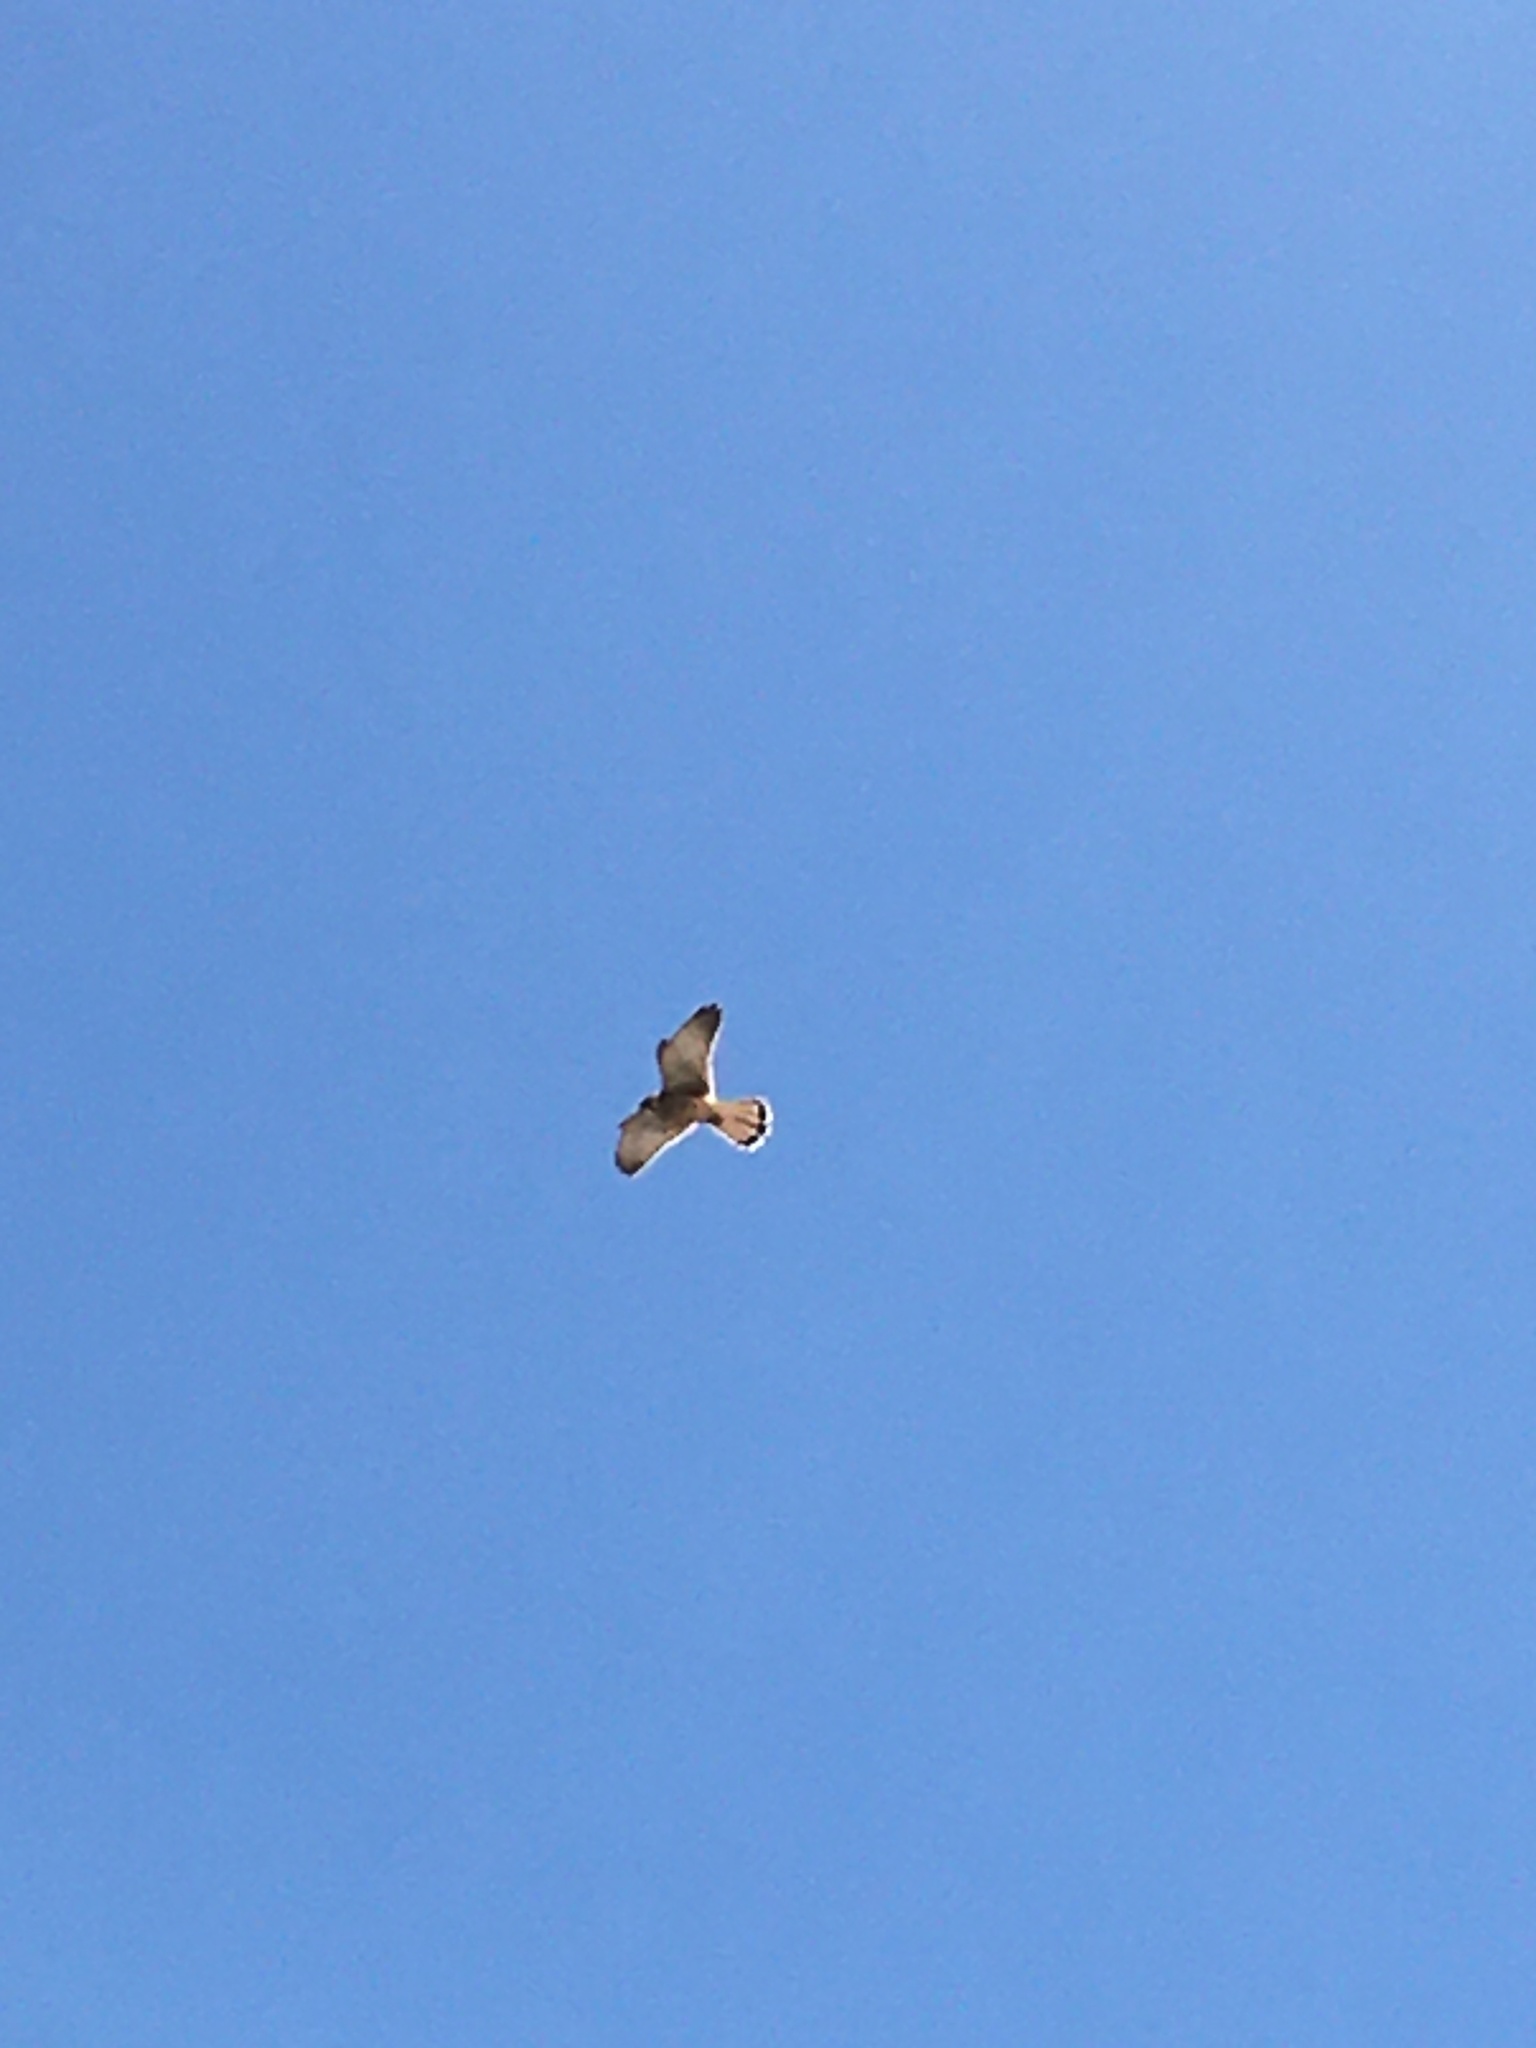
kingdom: Animalia
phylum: Chordata
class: Aves
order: Falconiformes
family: Falconidae
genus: Falco
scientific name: Falco tinnunculus
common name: Common kestrel
